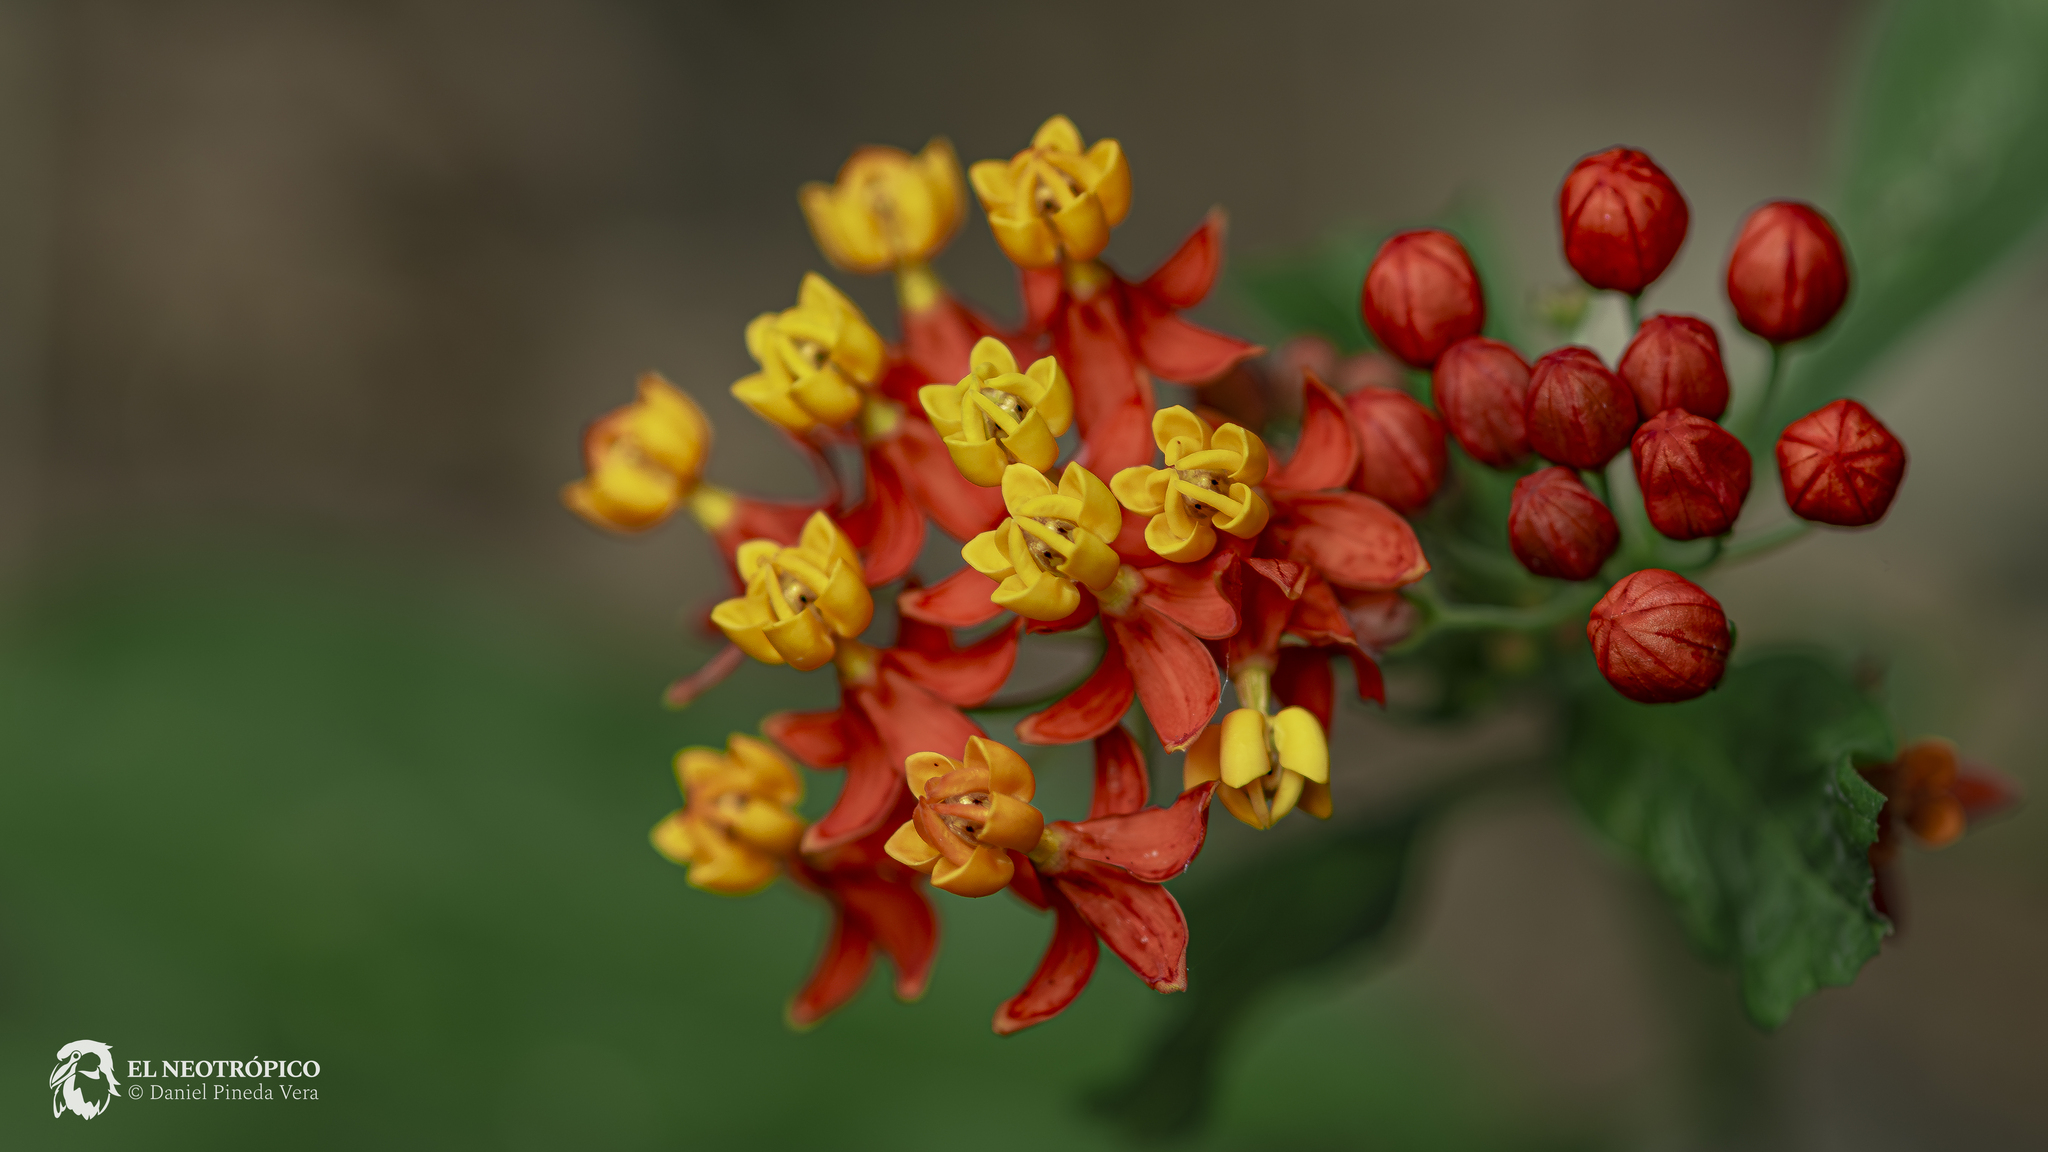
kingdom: Plantae
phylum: Tracheophyta
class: Magnoliopsida
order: Gentianales
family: Apocynaceae
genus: Asclepias
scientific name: Asclepias curassavica
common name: Bloodflower
